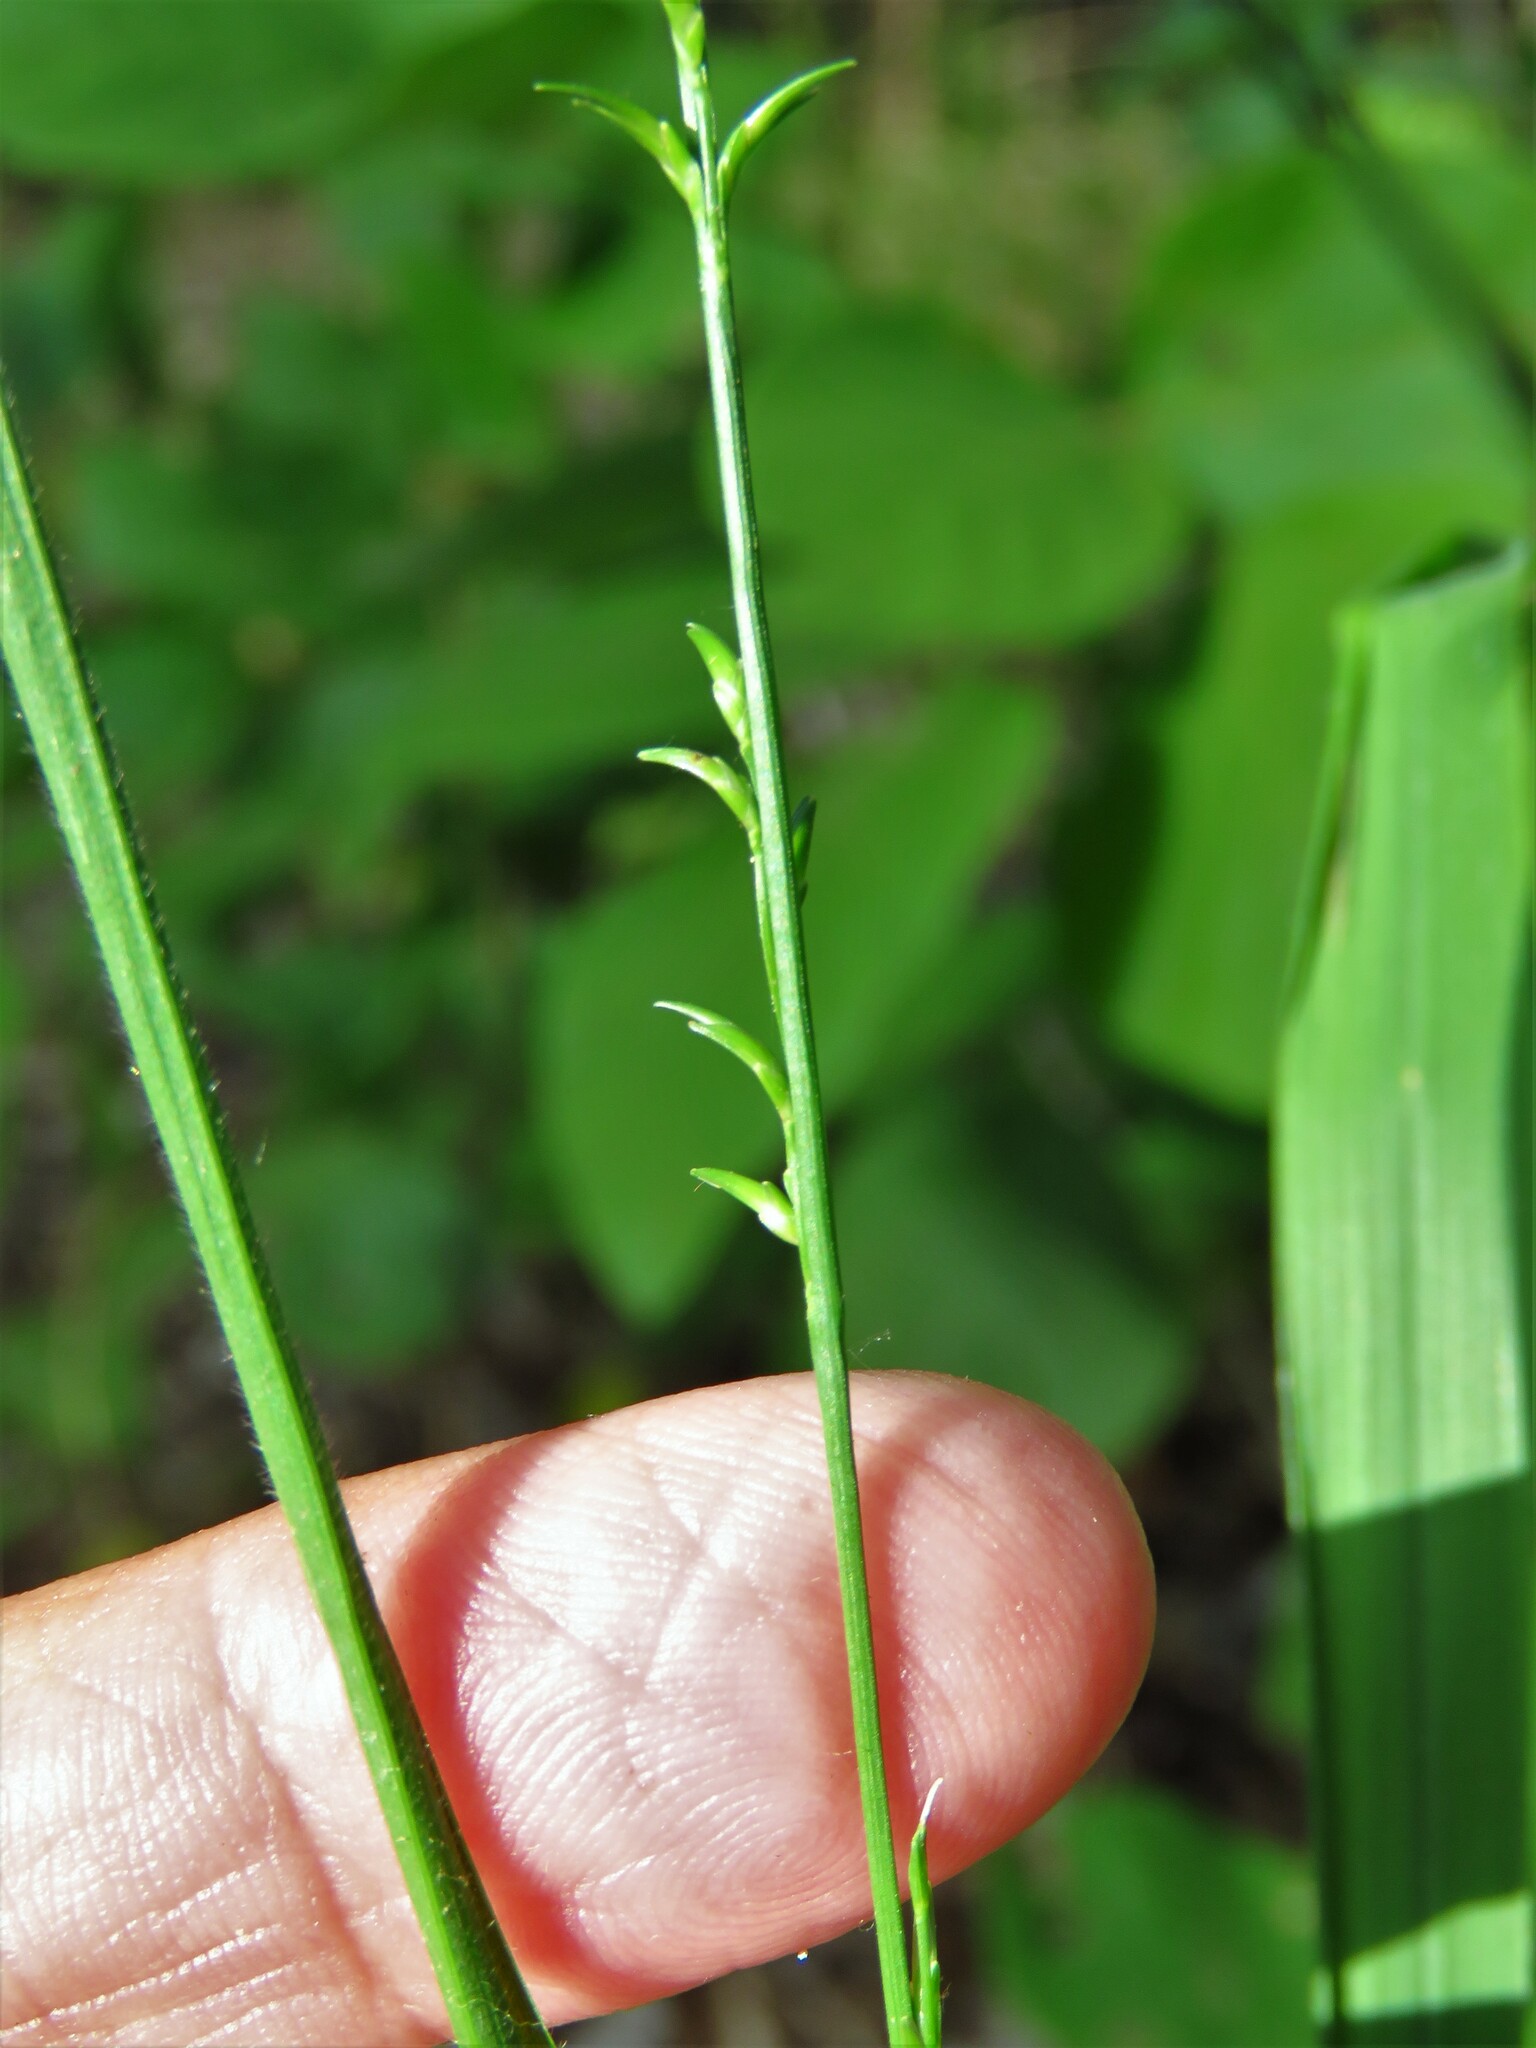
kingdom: Plantae
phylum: Tracheophyta
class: Liliopsida
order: Poales
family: Poaceae
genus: Chasmanthium
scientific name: Chasmanthium laxum
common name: Slender chasmanthium
